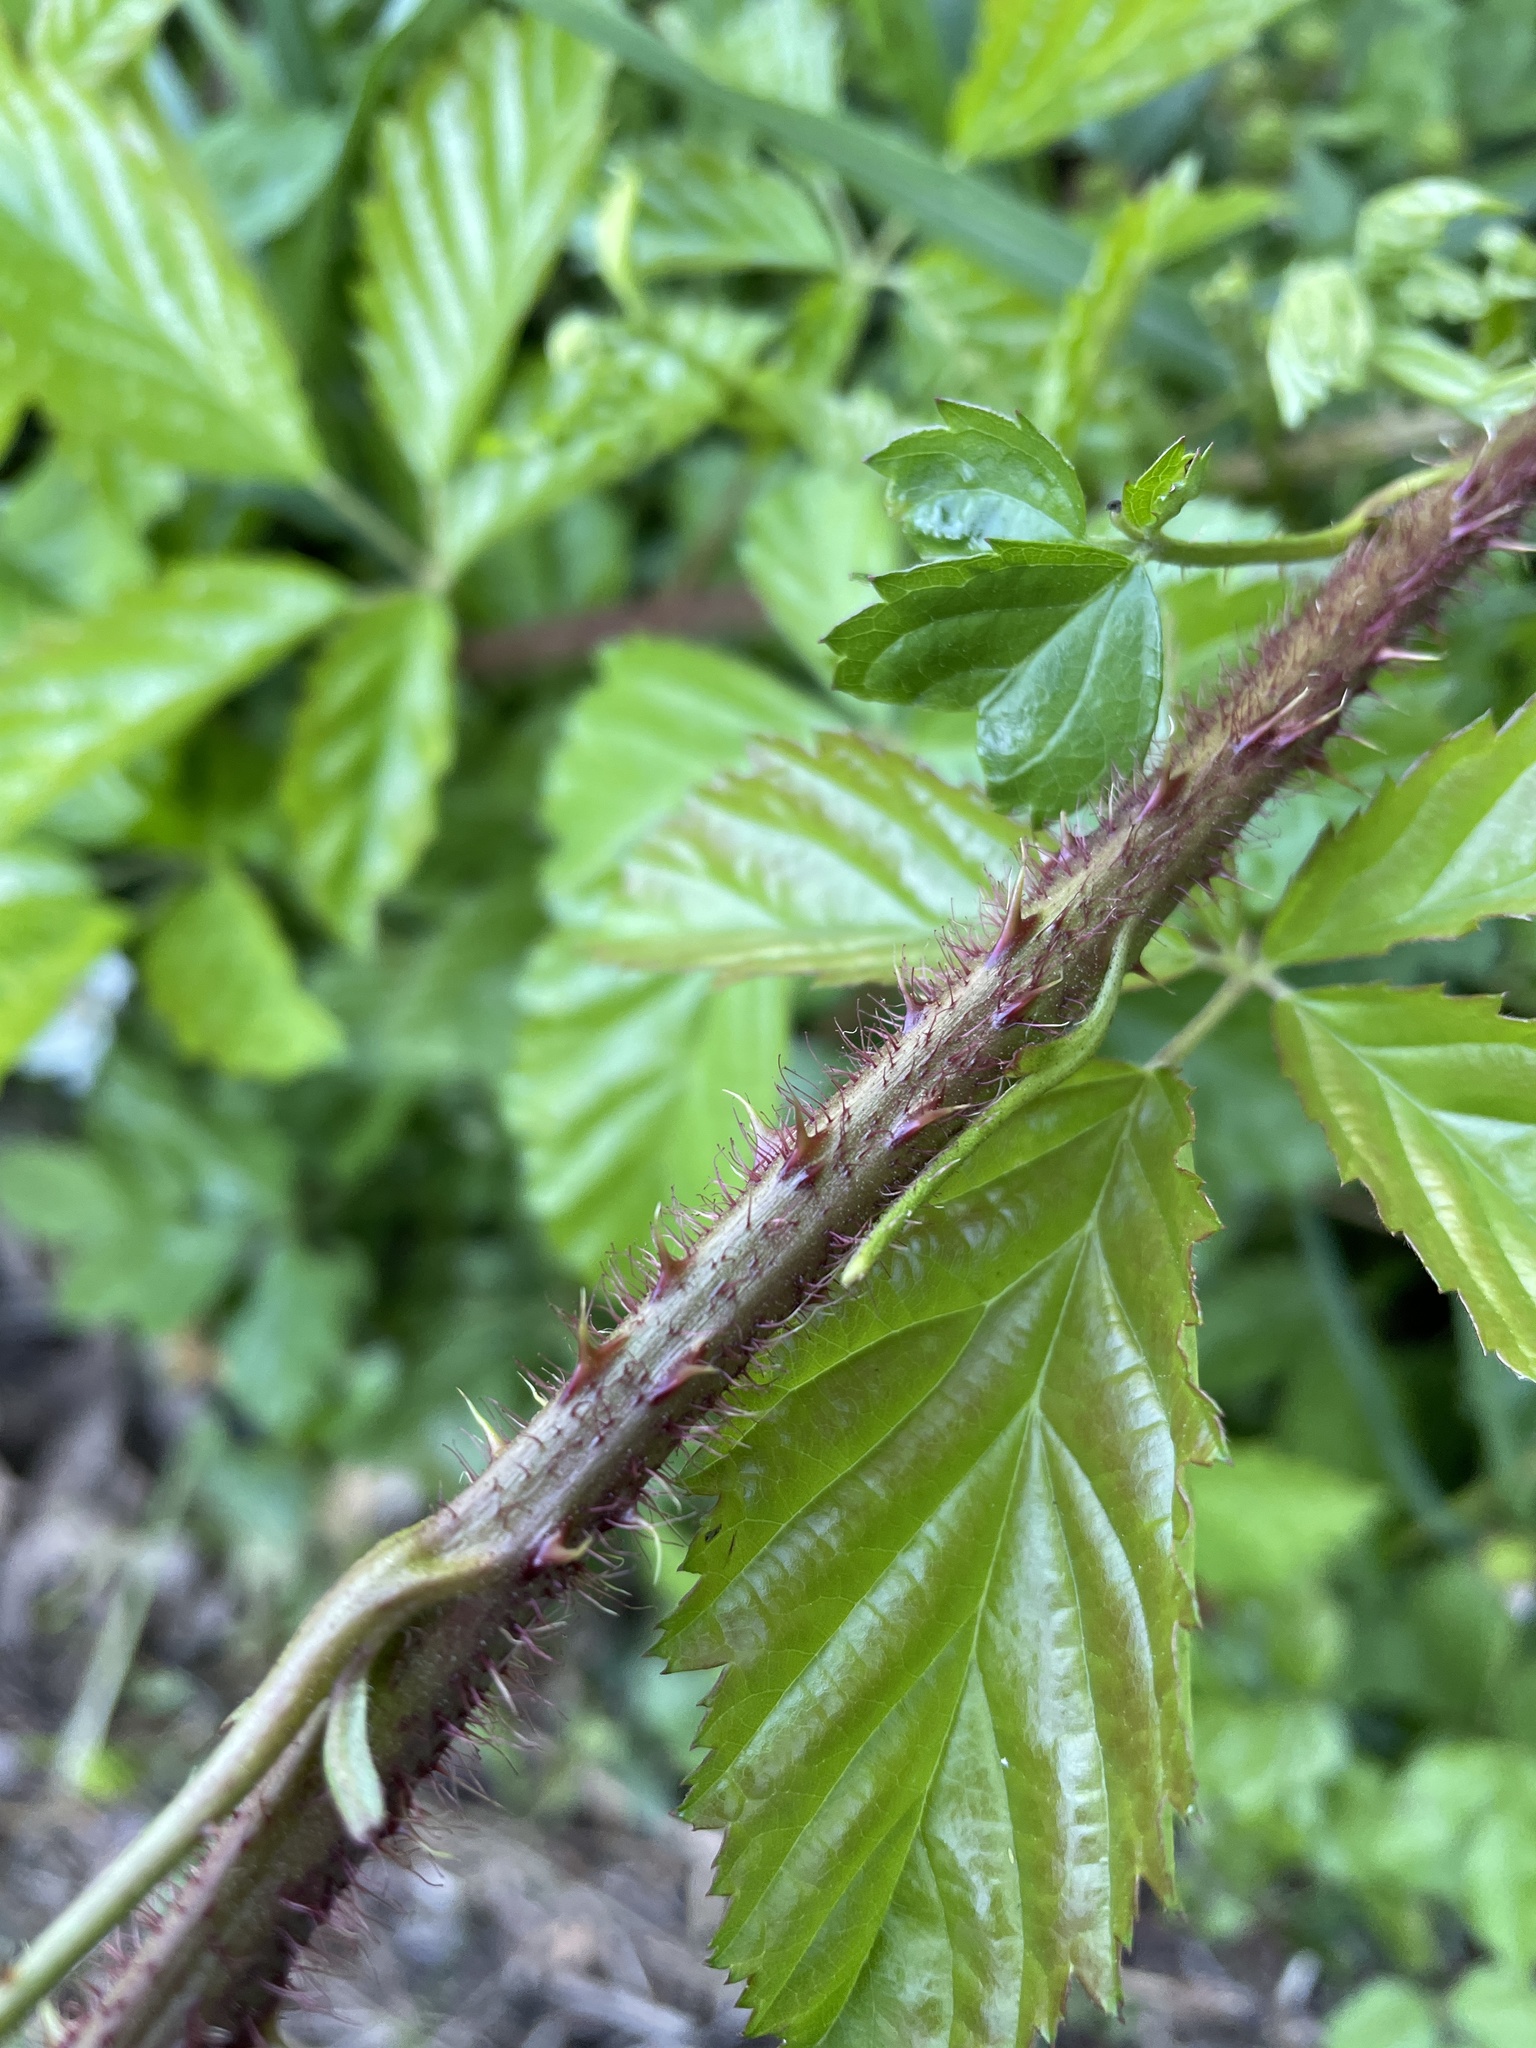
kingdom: Plantae
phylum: Tracheophyta
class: Magnoliopsida
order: Rosales
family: Rosaceae
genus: Rubus
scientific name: Rubus trivialis
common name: Southern dewberry
